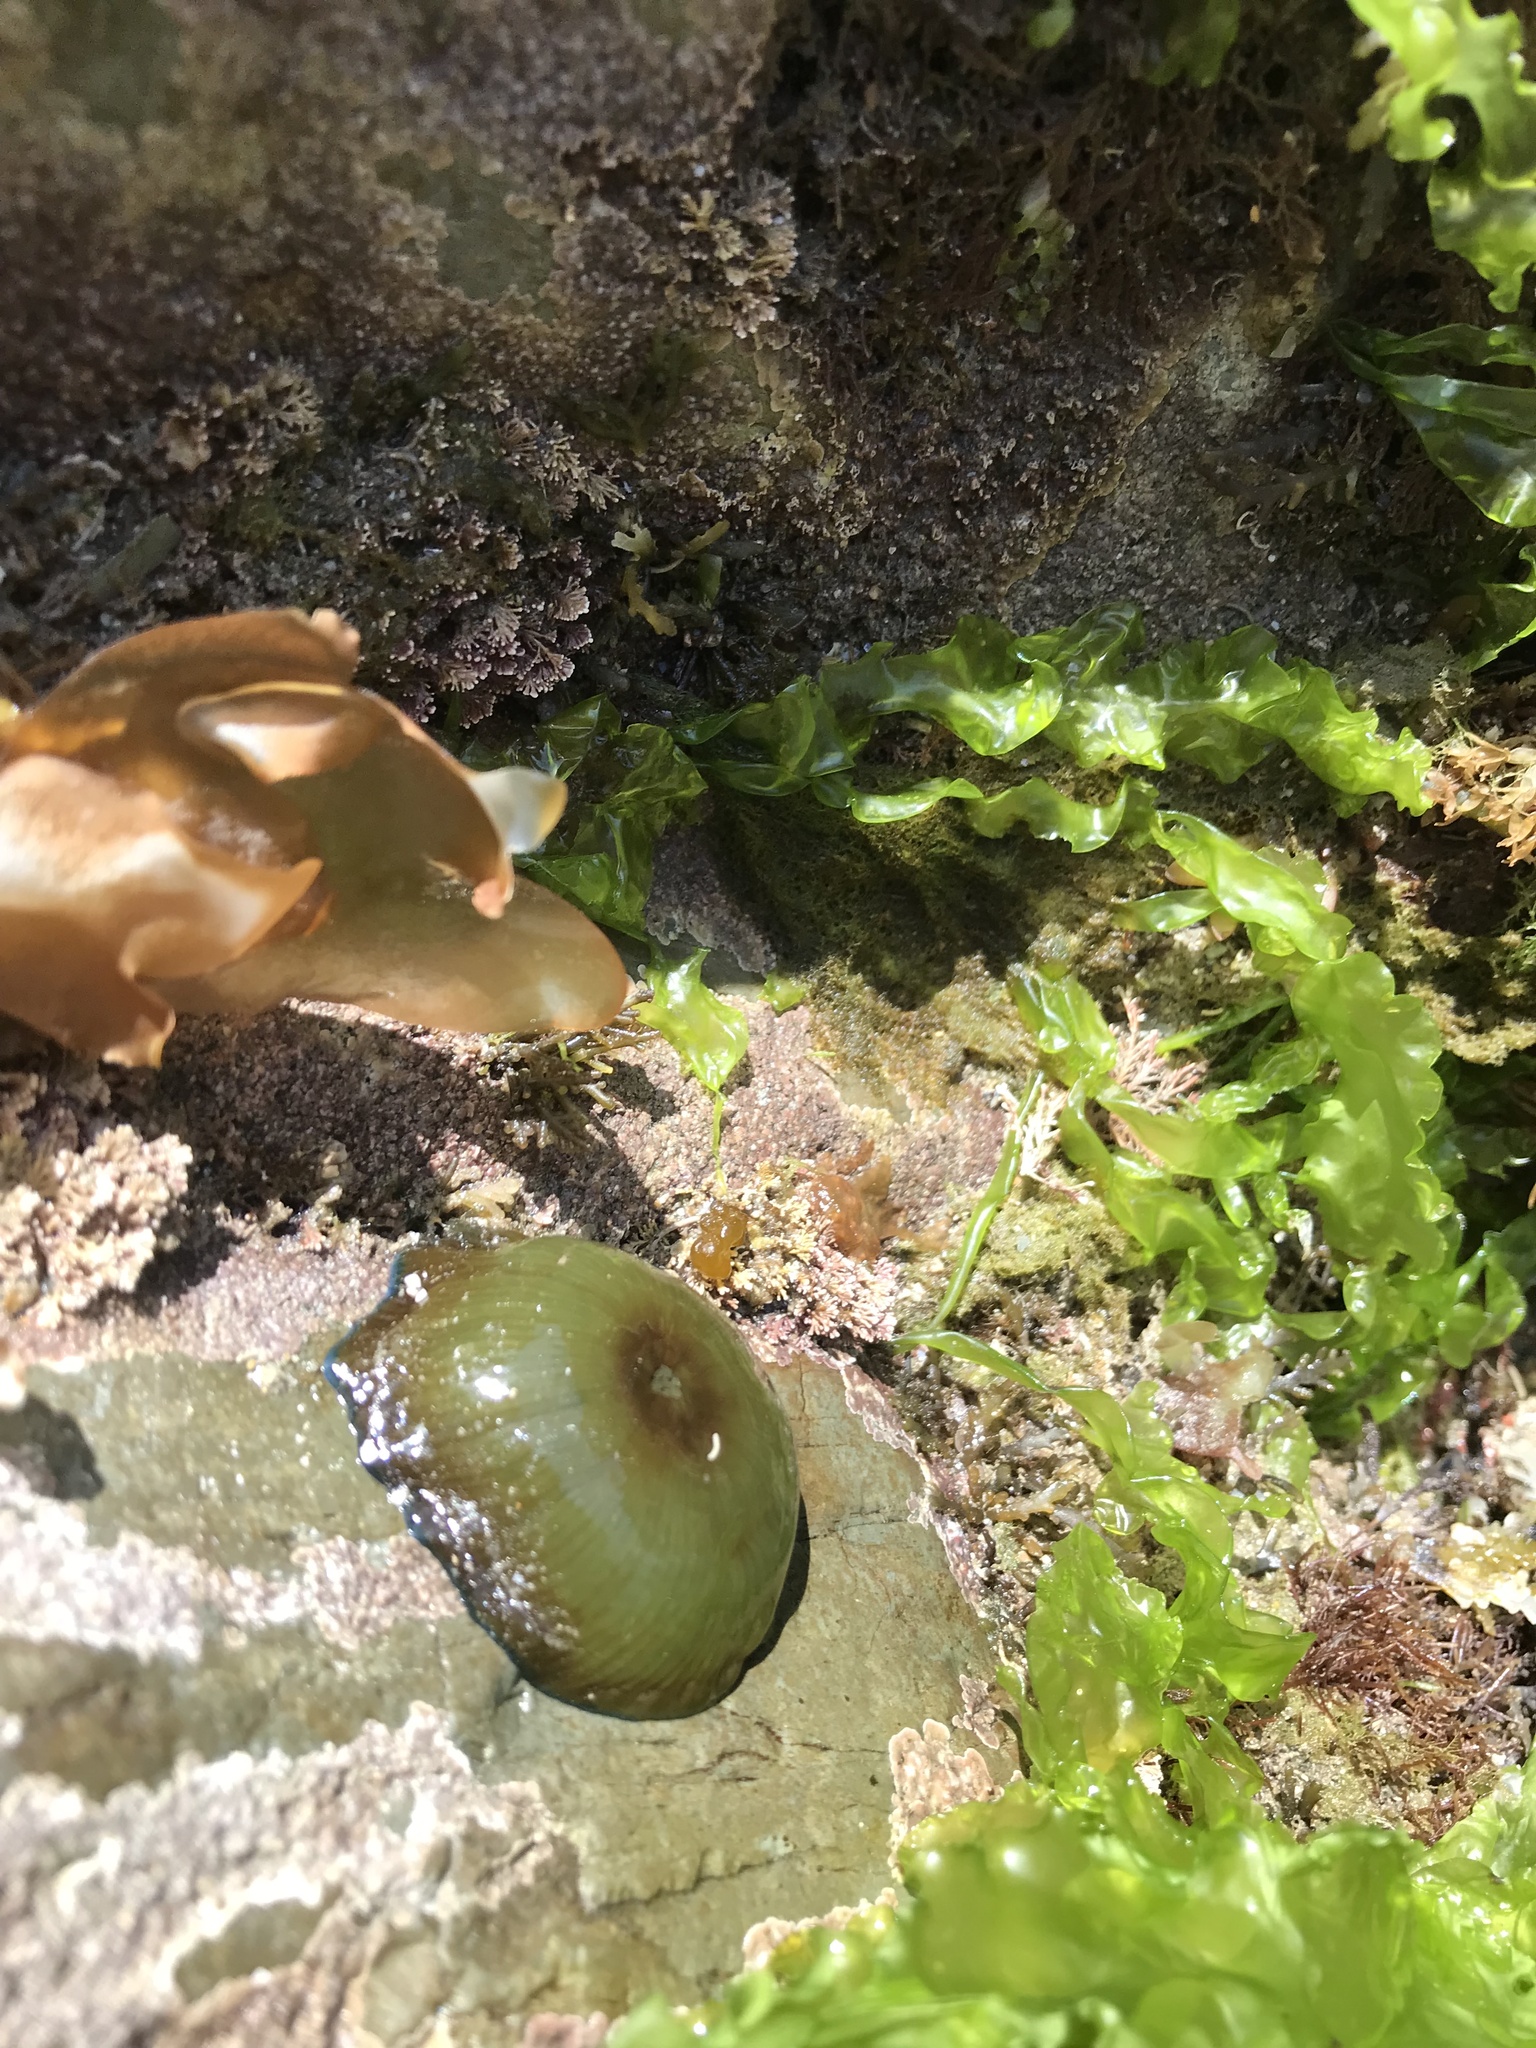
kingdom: Animalia
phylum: Cnidaria
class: Anthozoa
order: Actiniaria
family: Actiniidae
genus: Actinia
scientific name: Actinia equina
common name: Beadlet anemone
